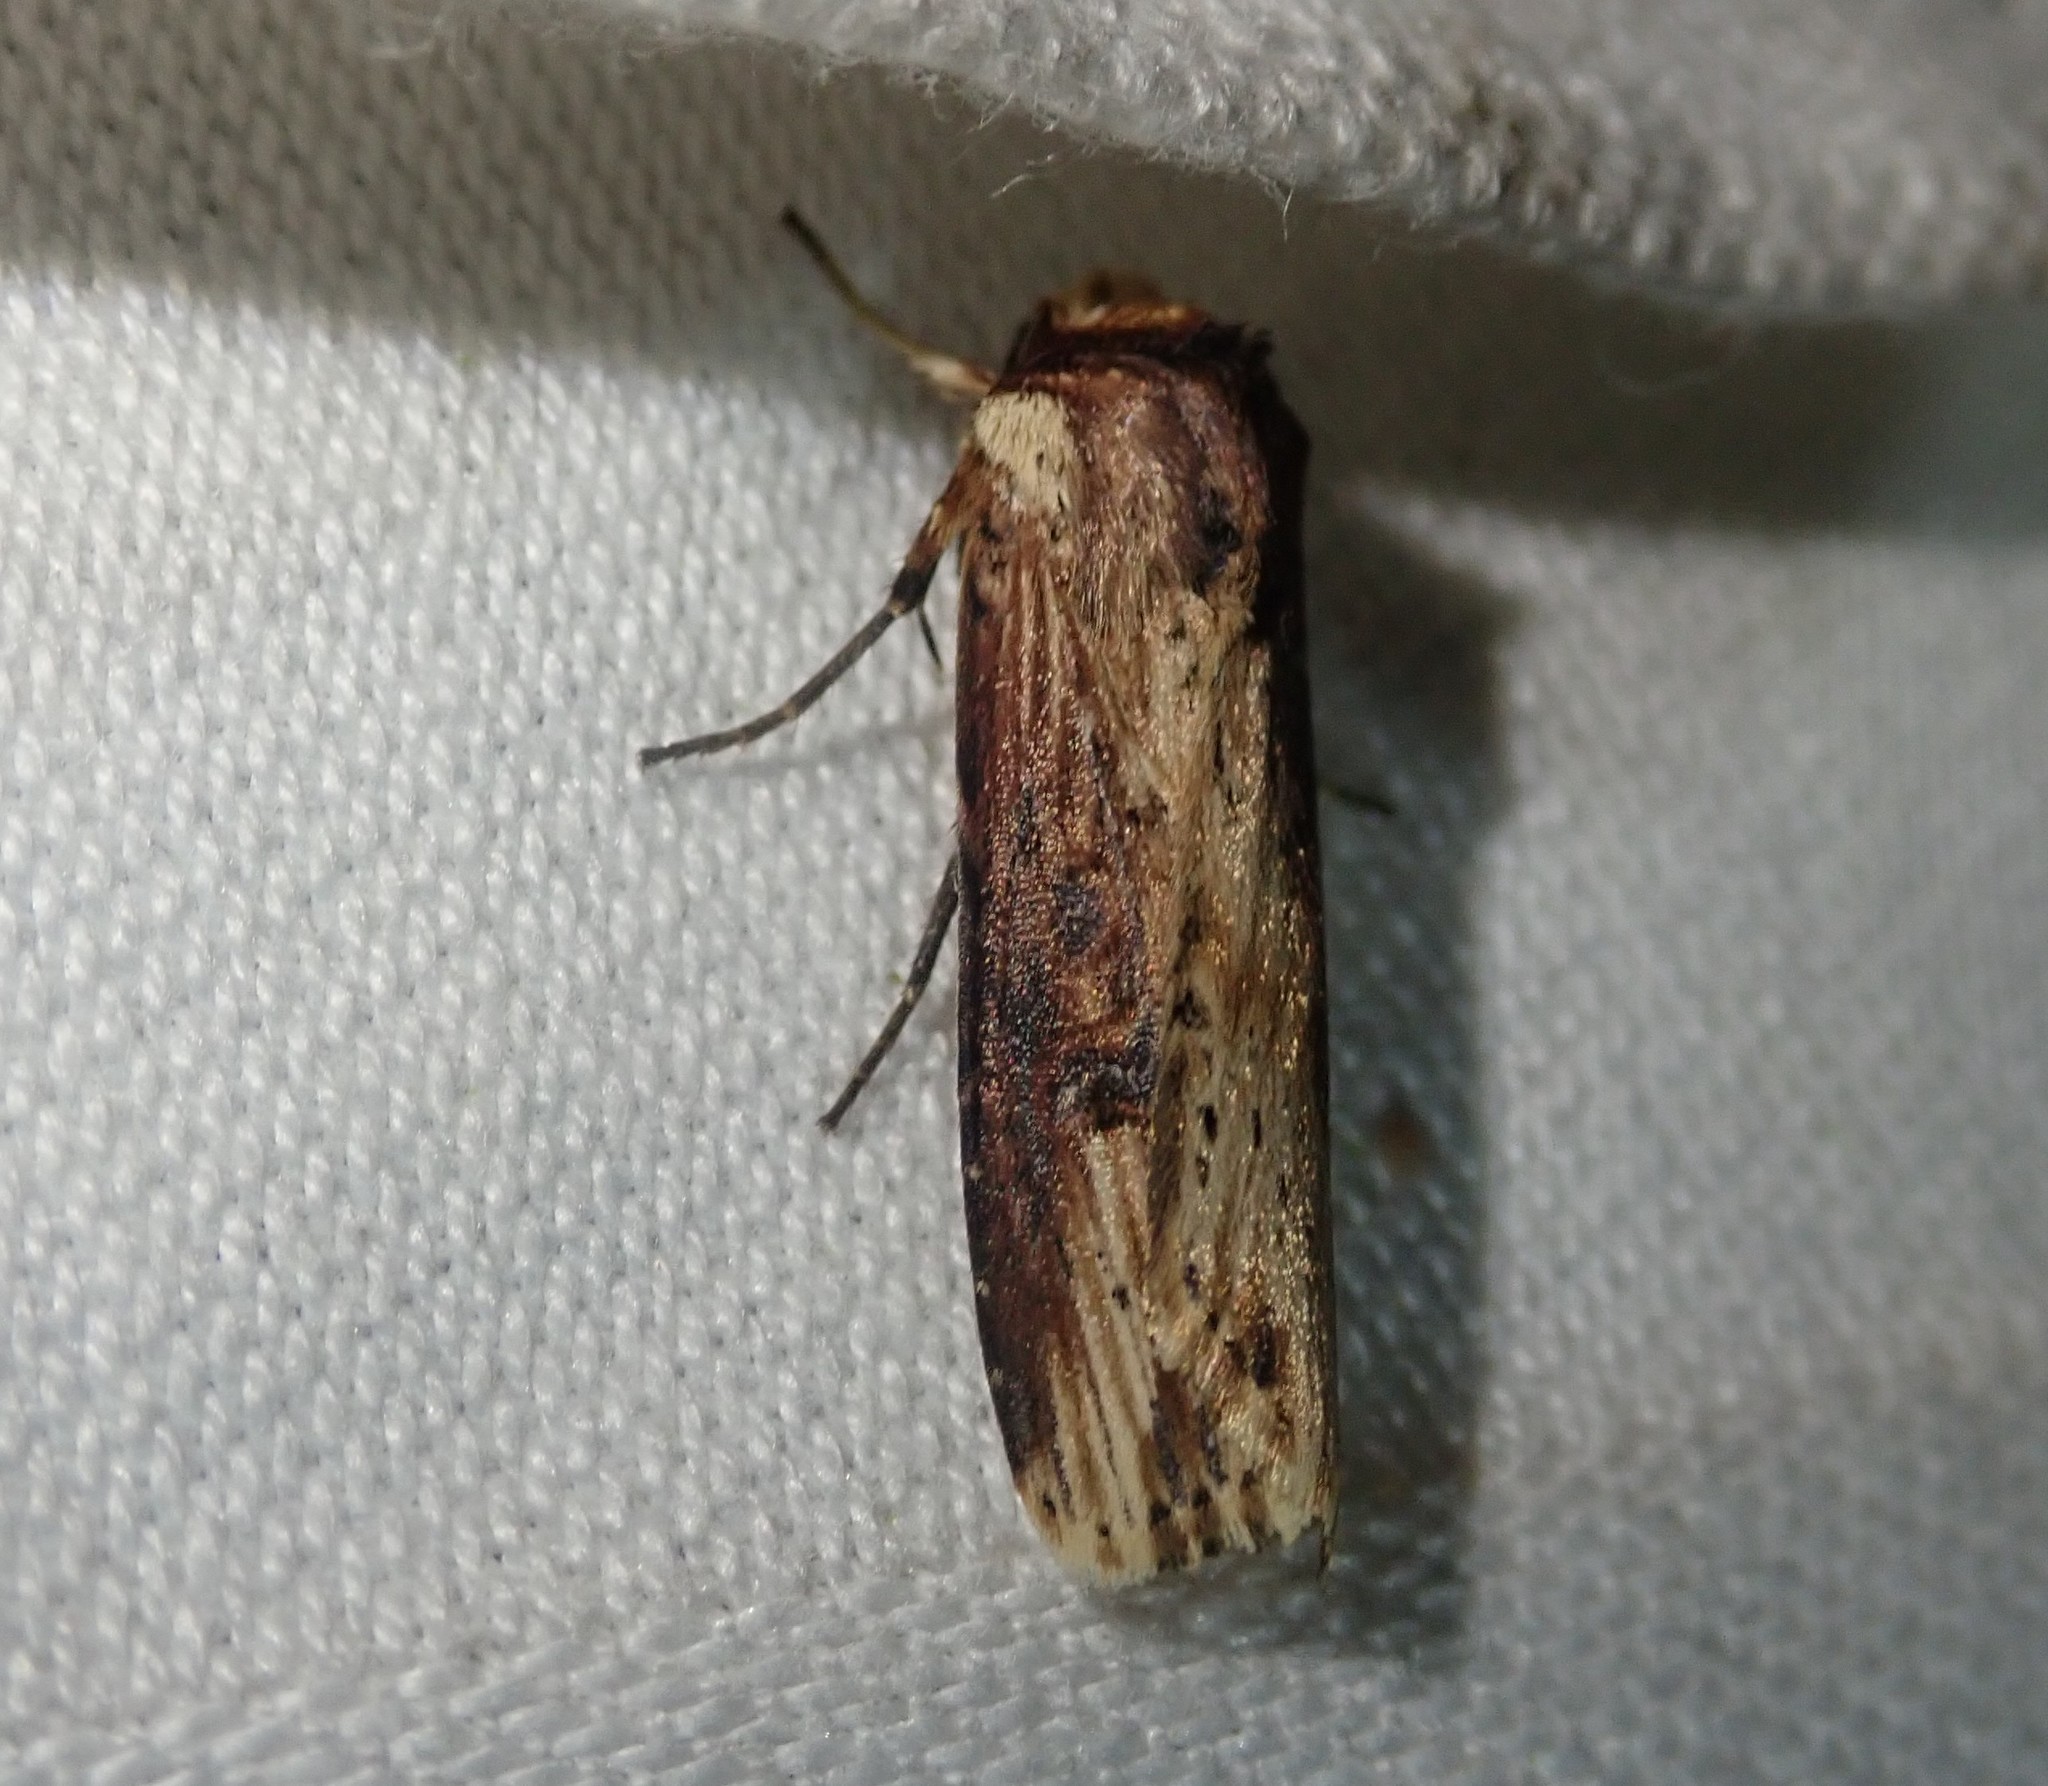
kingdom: Animalia
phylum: Arthropoda
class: Insecta
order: Lepidoptera
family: Noctuidae
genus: Axylia
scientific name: Axylia putris
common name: Flame
